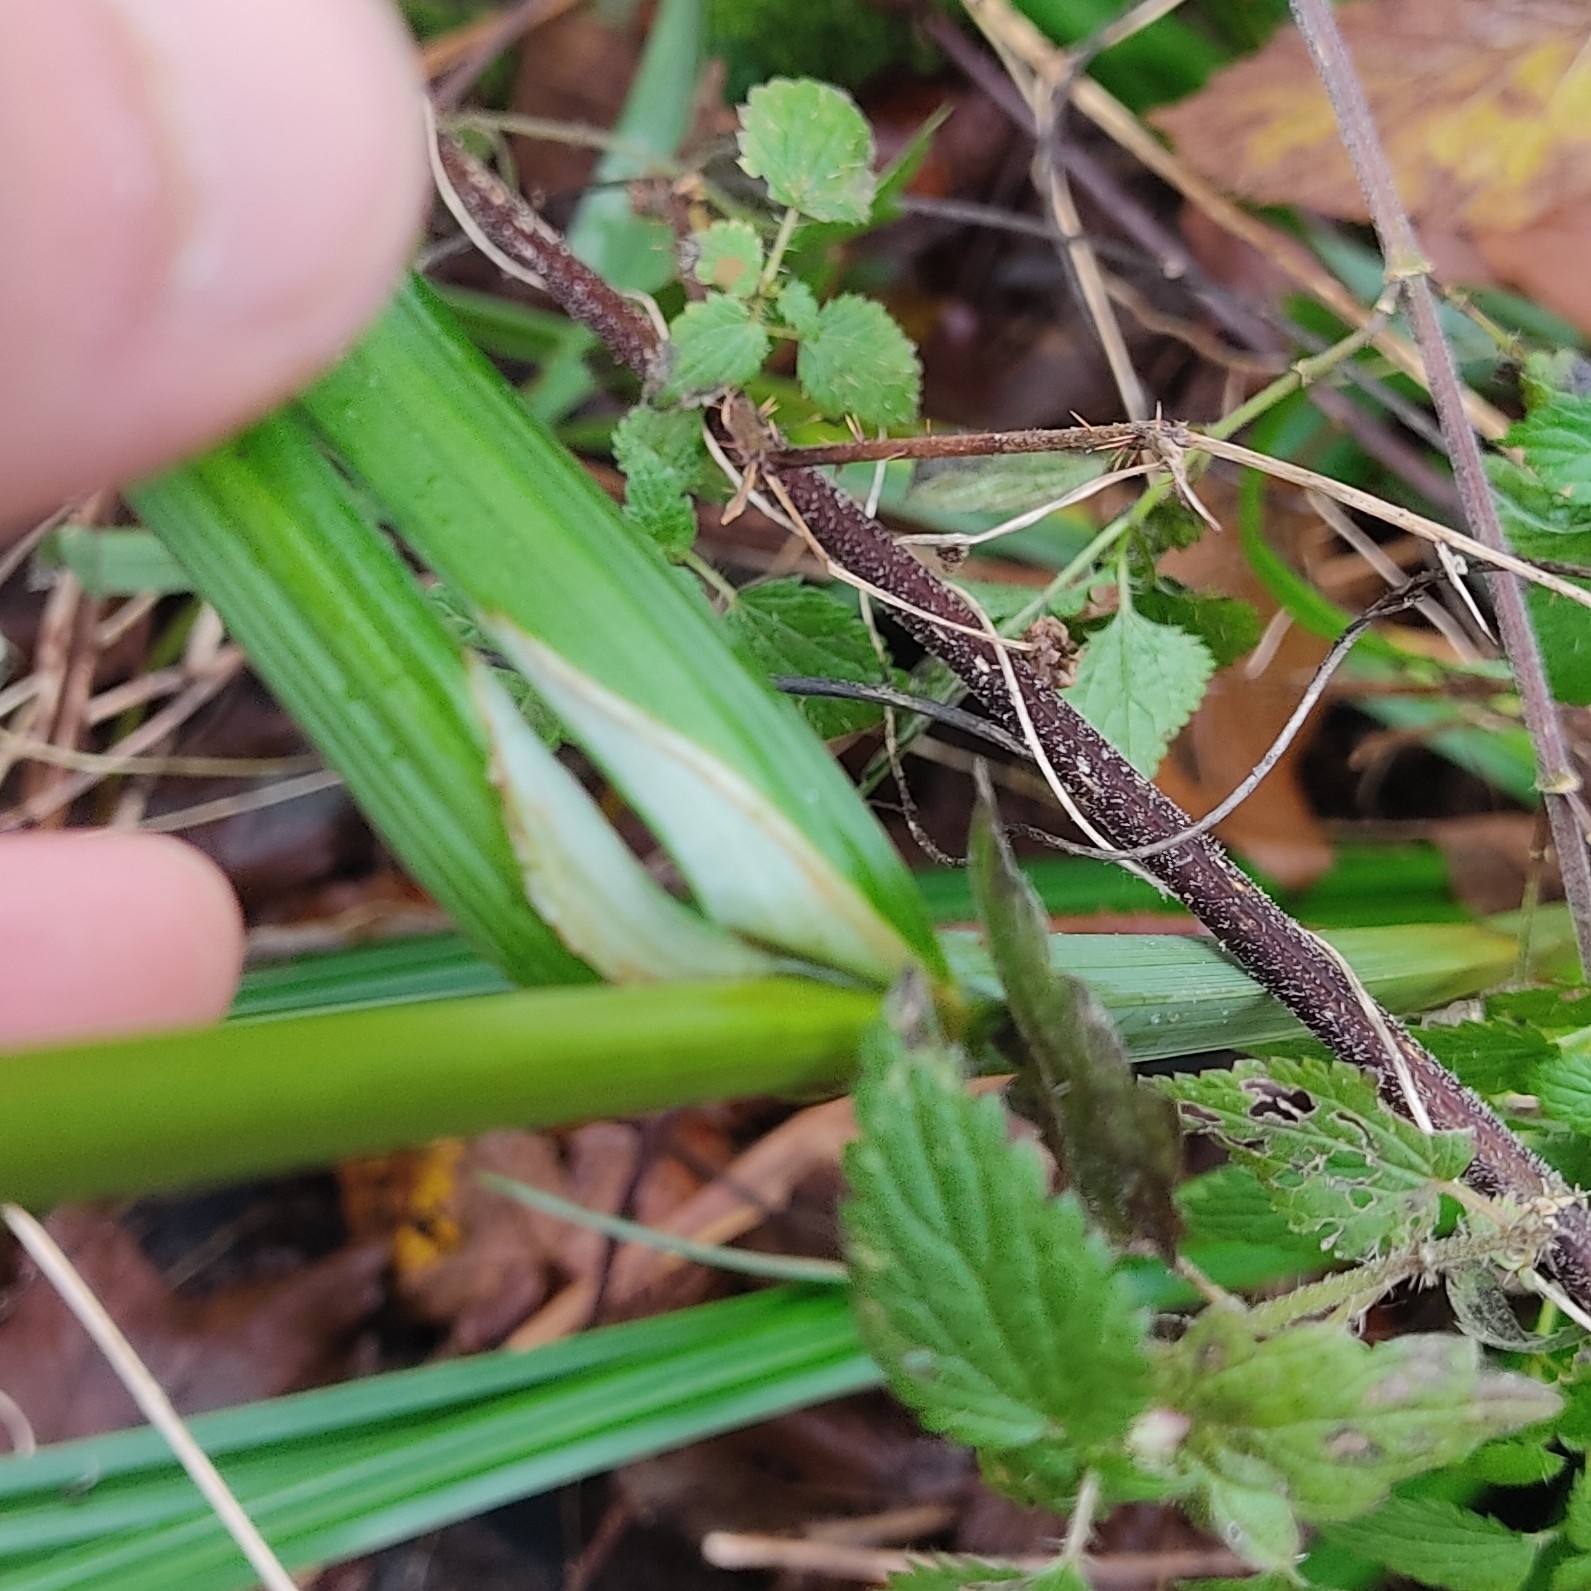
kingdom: Plantae
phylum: Tracheophyta
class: Liliopsida
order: Poales
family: Cyperaceae
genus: Carex
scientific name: Carex pendula
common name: Pendulous sedge
